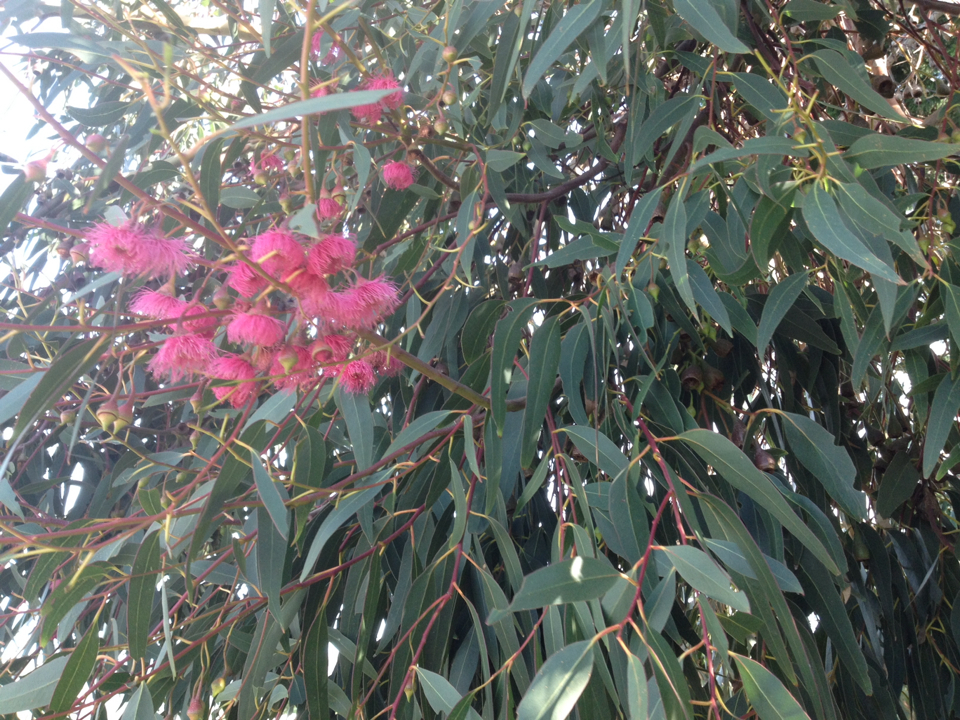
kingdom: Animalia
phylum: Arthropoda
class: Insecta
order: Coleoptera
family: Chrysomelidae
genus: Paropsis
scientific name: Paropsis charybdis
